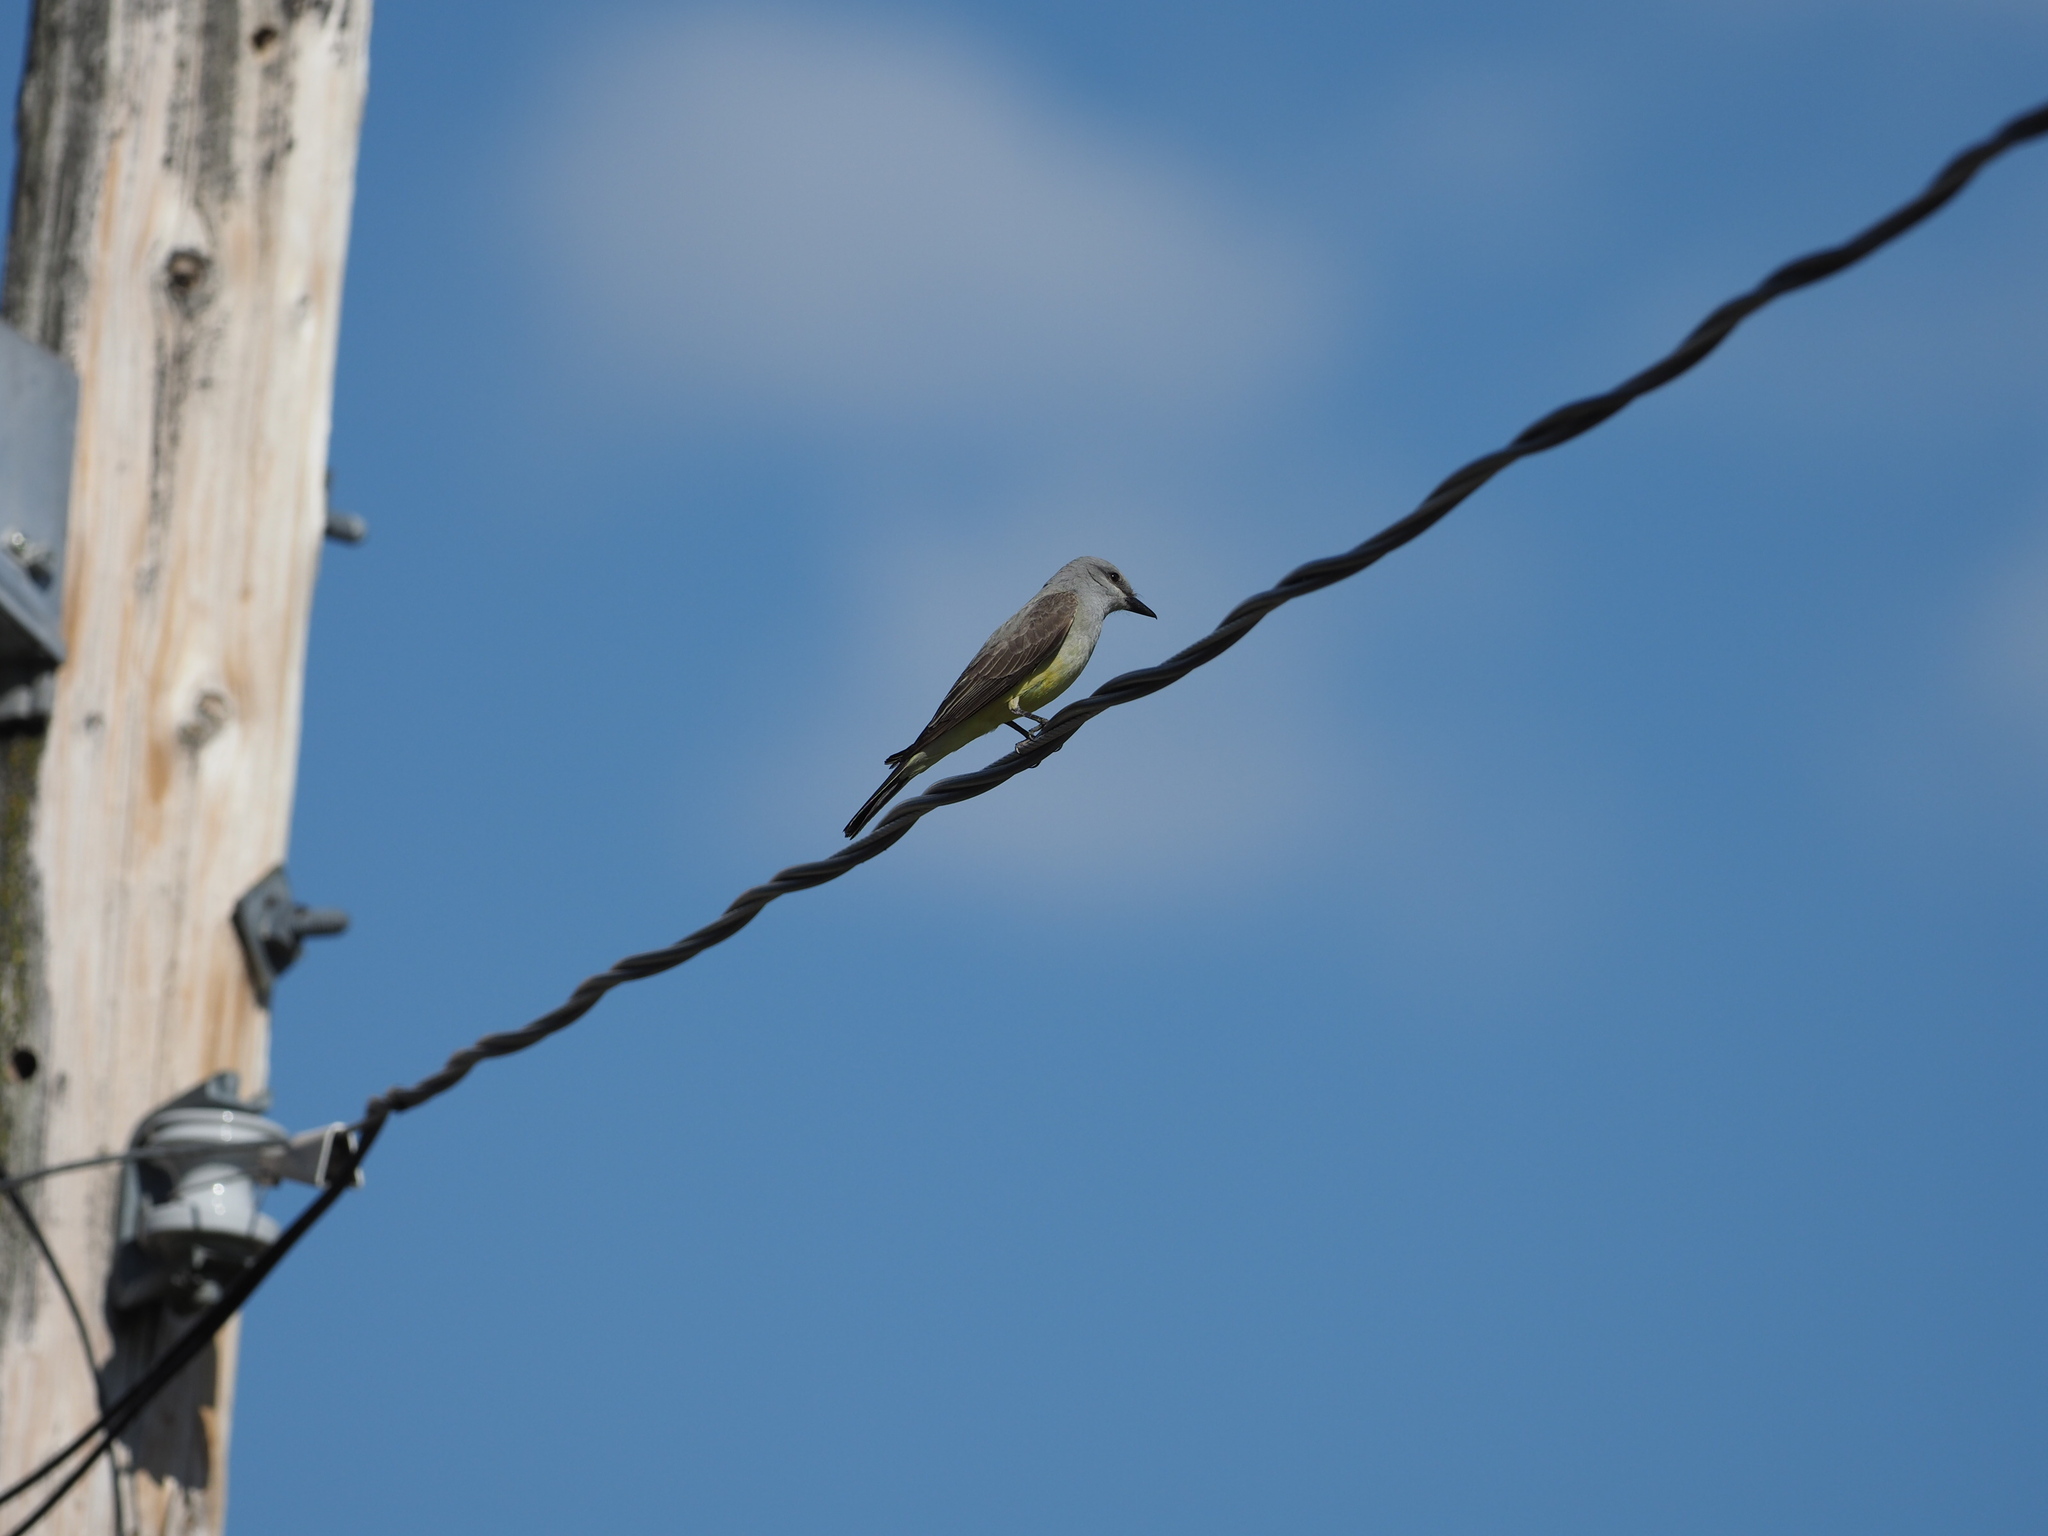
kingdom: Animalia
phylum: Chordata
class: Aves
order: Passeriformes
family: Tyrannidae
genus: Tyrannus
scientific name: Tyrannus verticalis
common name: Western kingbird
